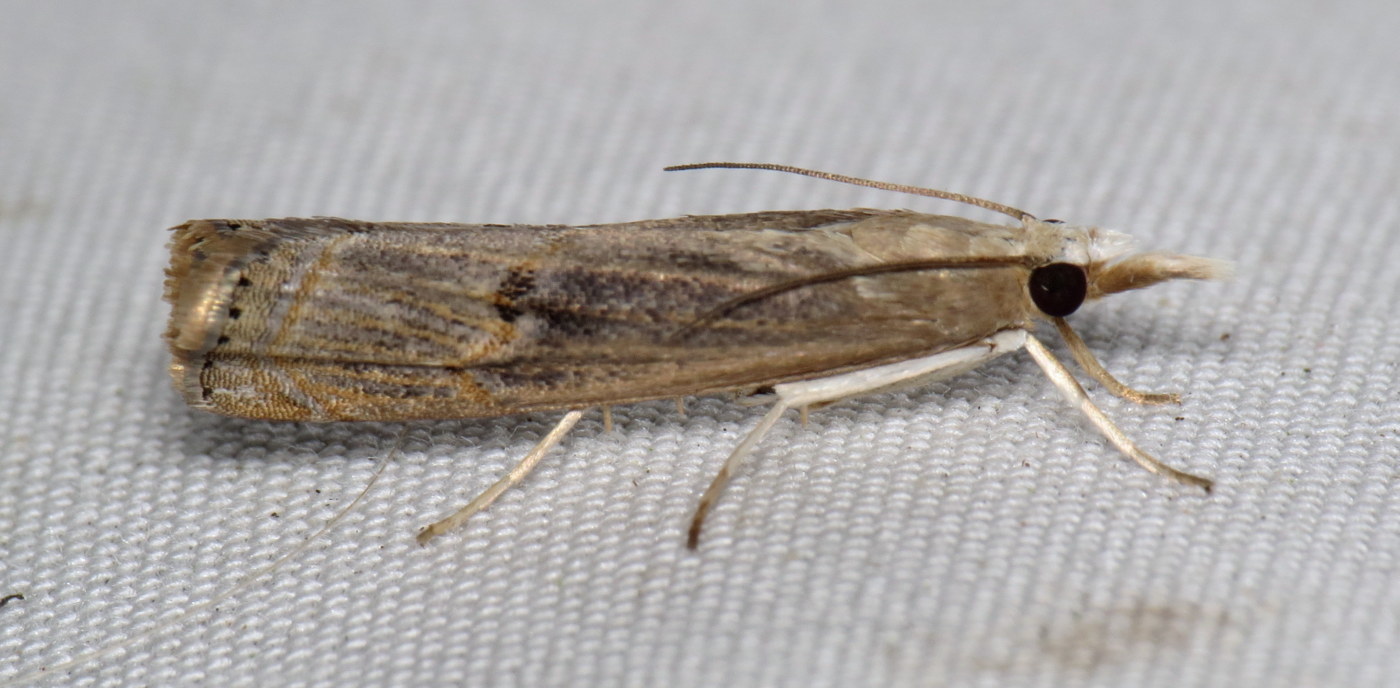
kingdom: Animalia
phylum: Arthropoda
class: Insecta
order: Lepidoptera
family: Crambidae
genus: Parapediasia
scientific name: Parapediasia teterellus
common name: Bluegrass webworm moth
